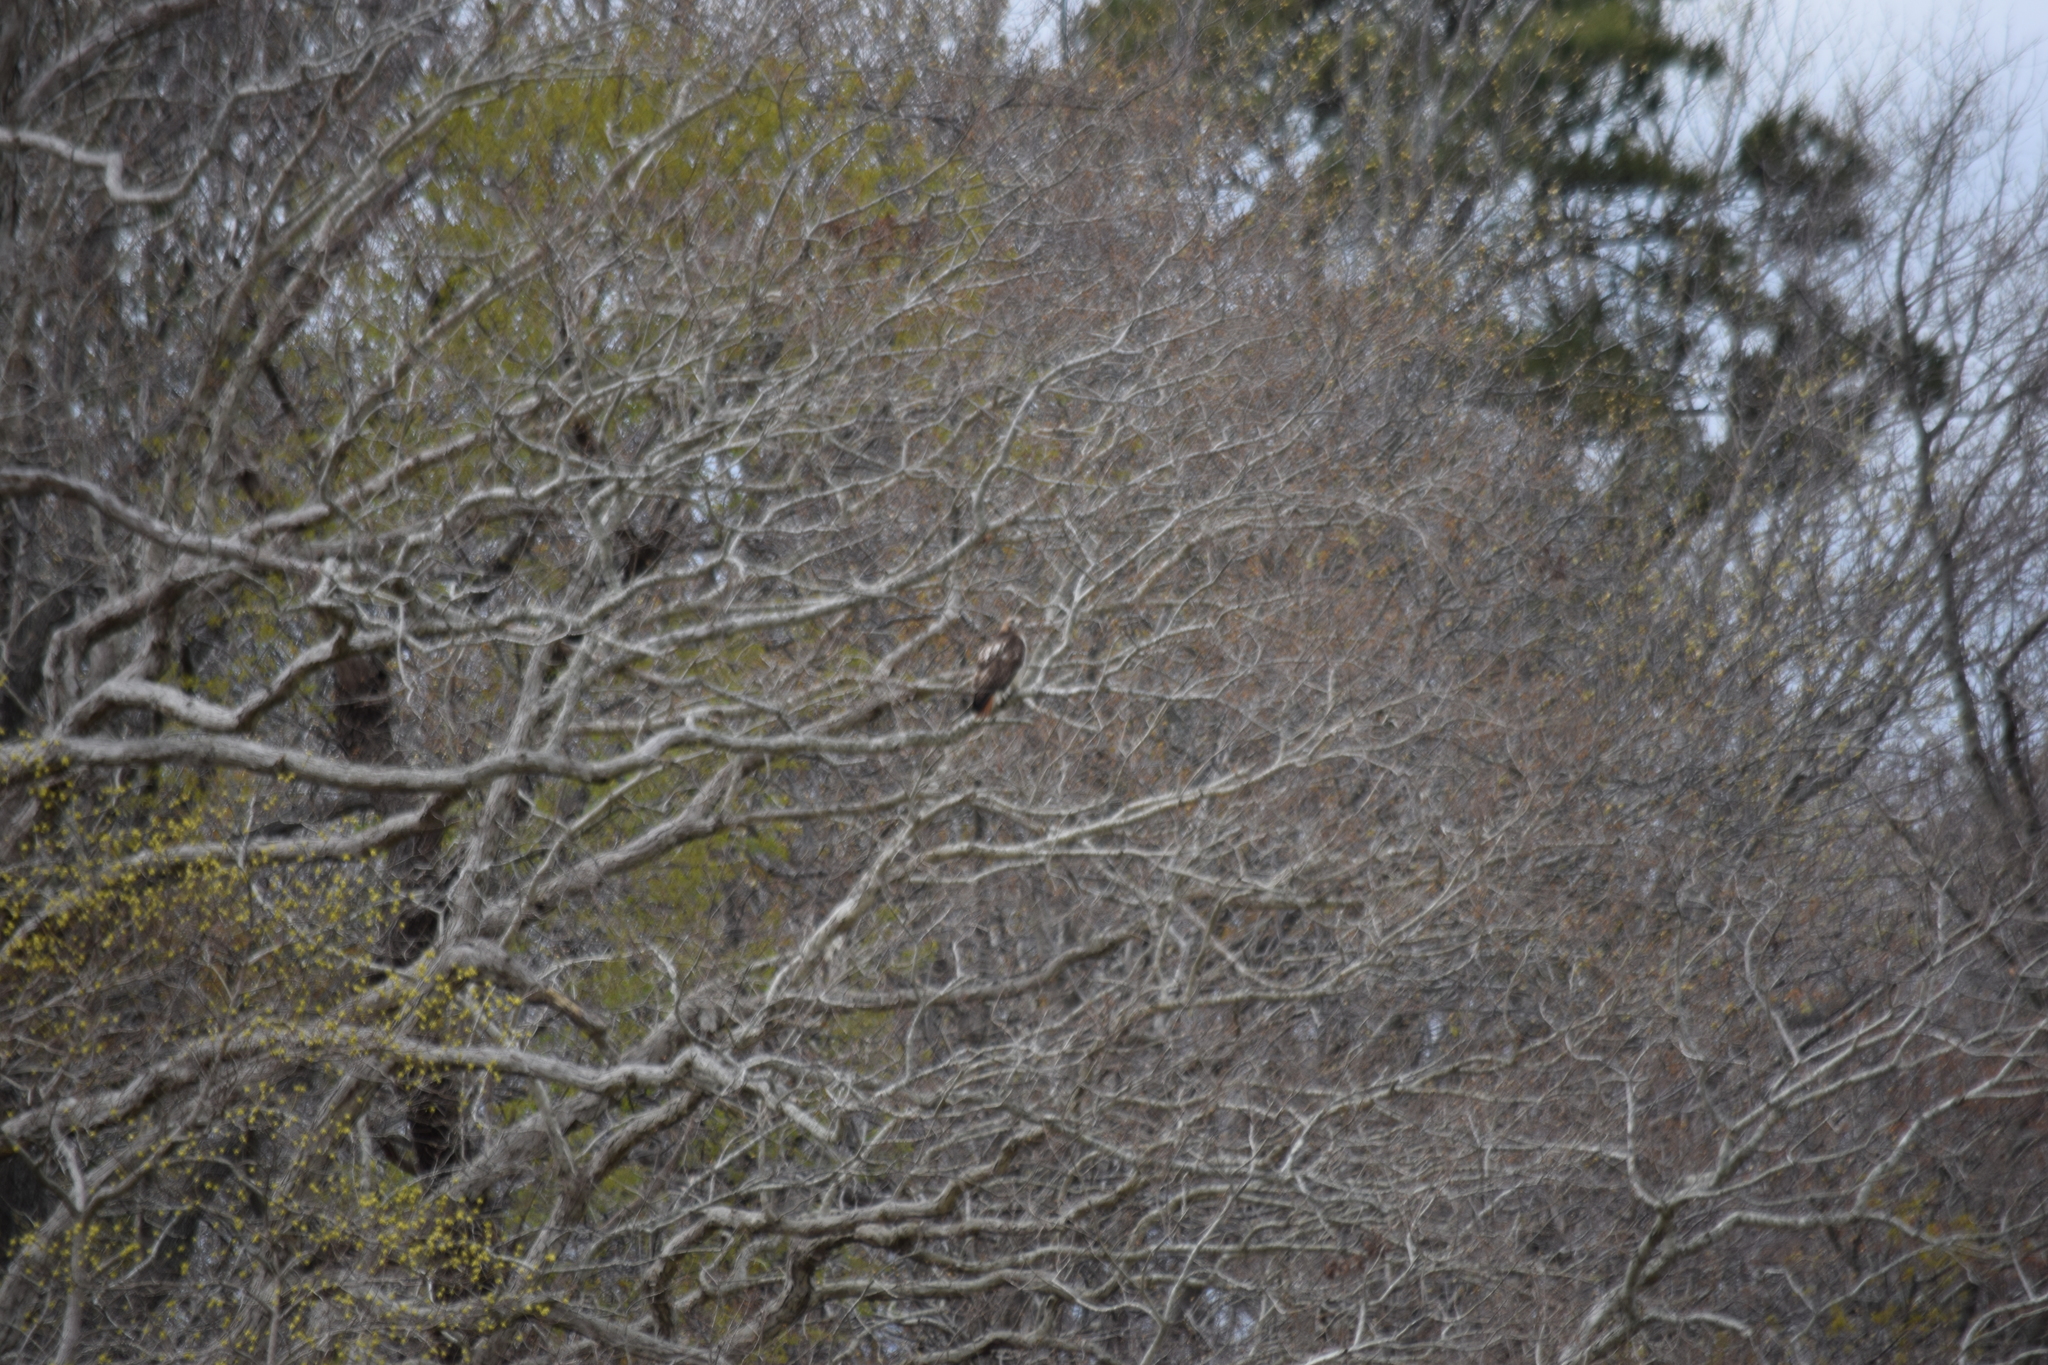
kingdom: Animalia
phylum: Chordata
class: Aves
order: Accipitriformes
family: Accipitridae
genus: Buteo
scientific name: Buteo jamaicensis
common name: Red-tailed hawk
